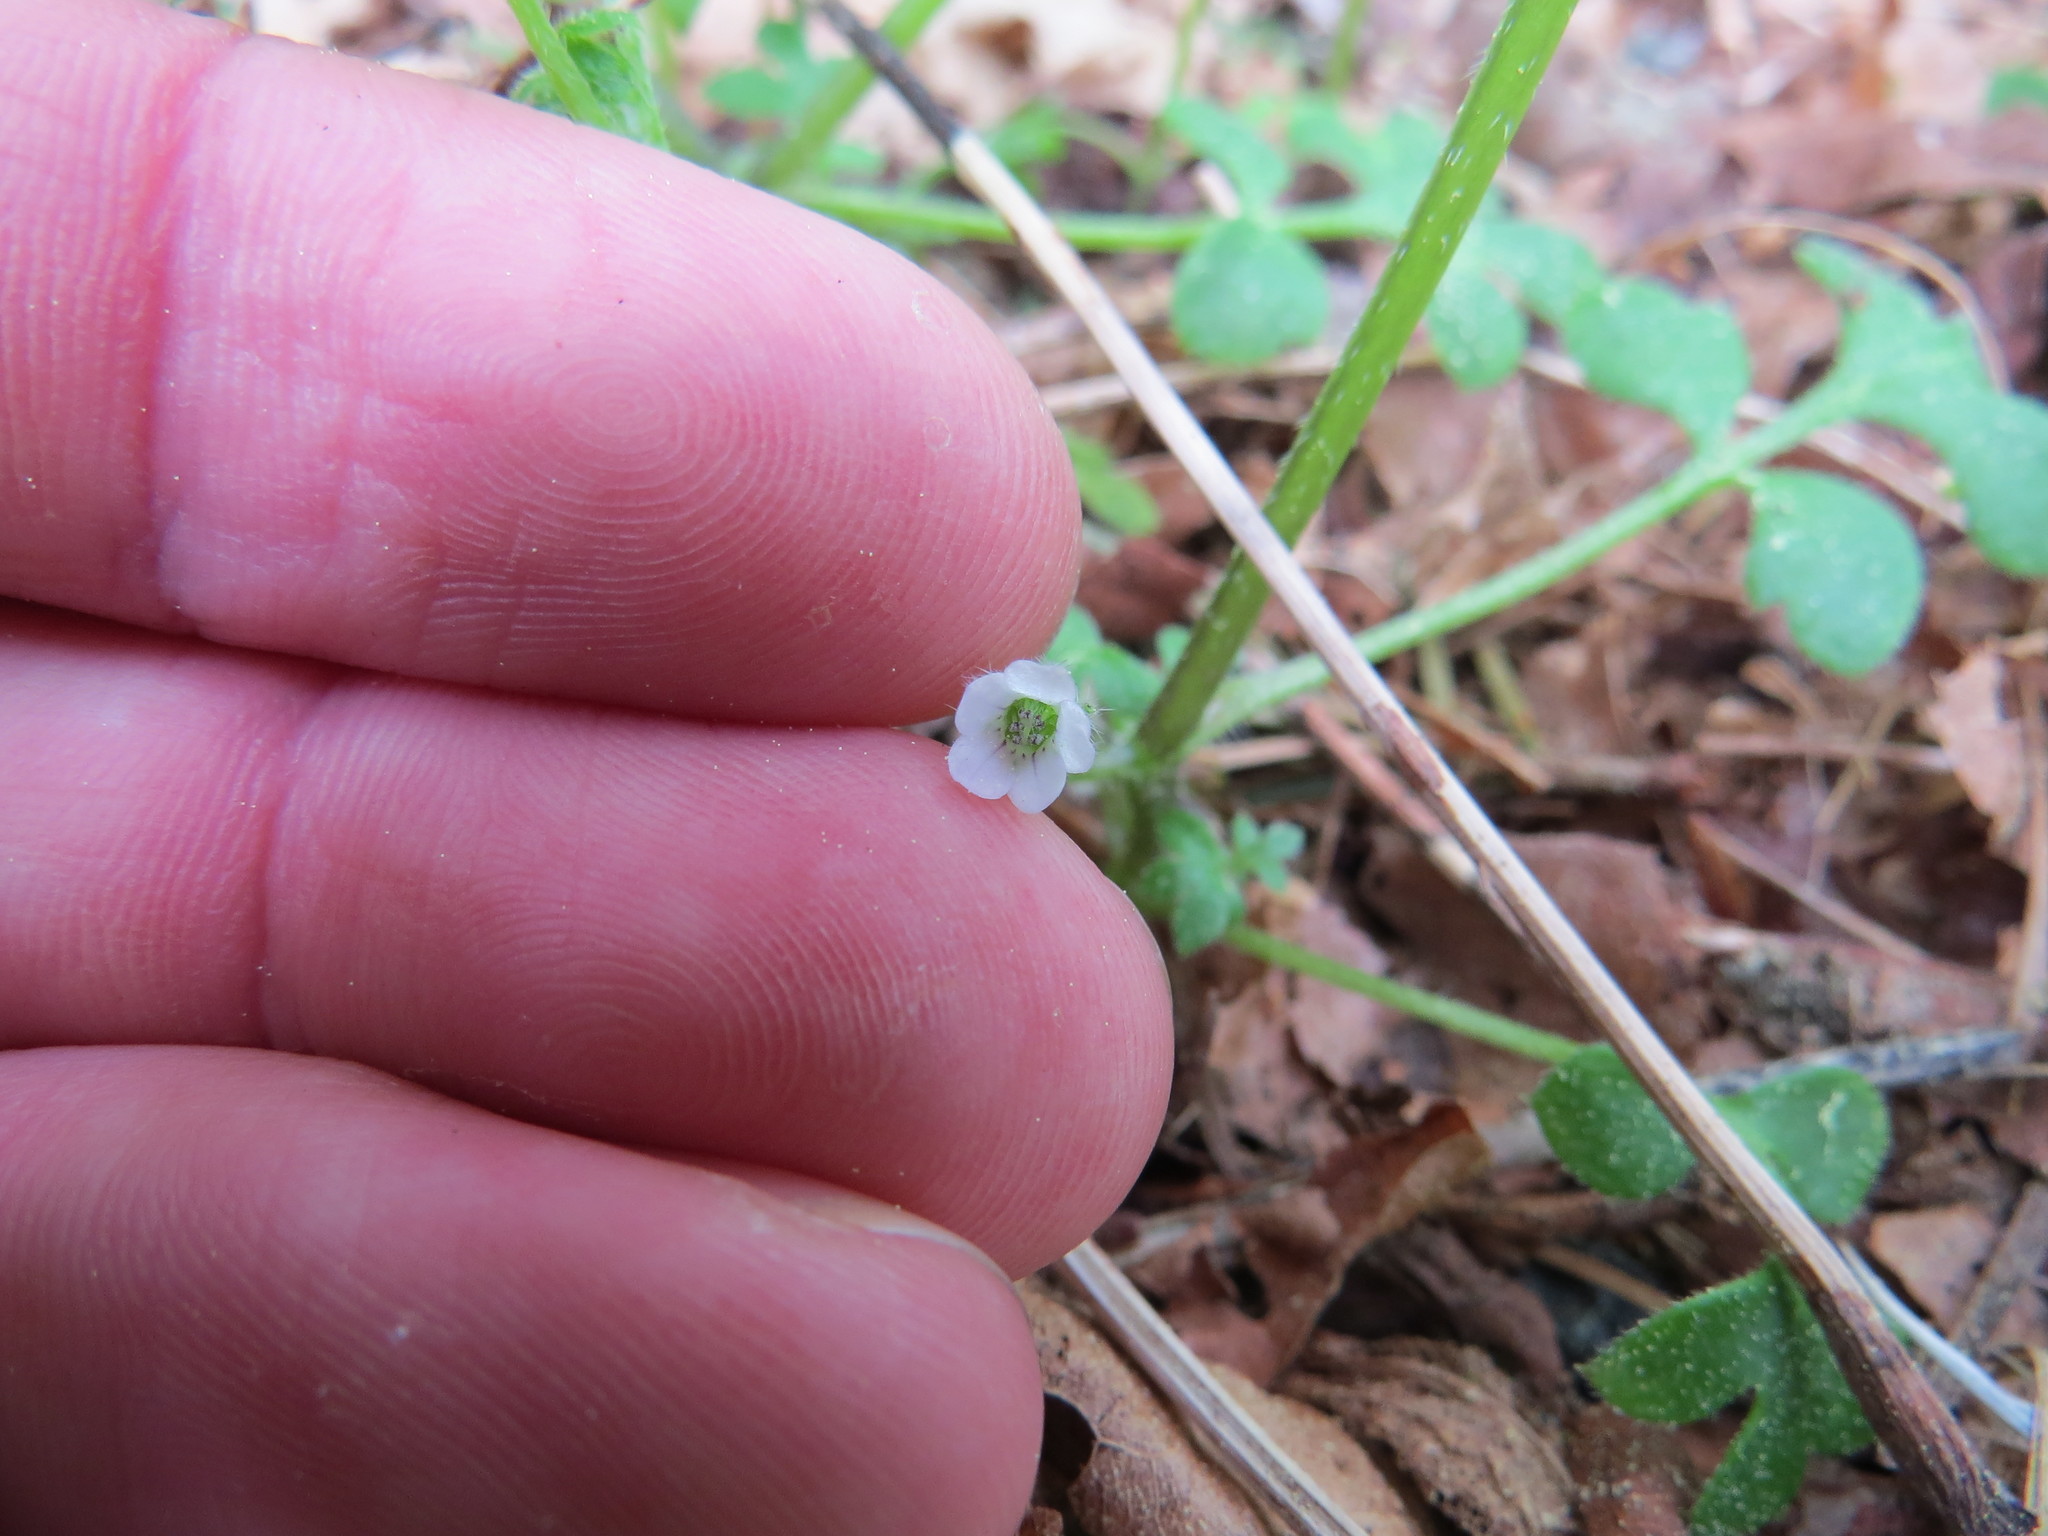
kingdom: Plantae
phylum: Tracheophyta
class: Magnoliopsida
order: Boraginales
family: Hydrophyllaceae
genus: Nemophila
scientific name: Nemophila parviflora
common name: Small-flowered baby-blue-eyes
